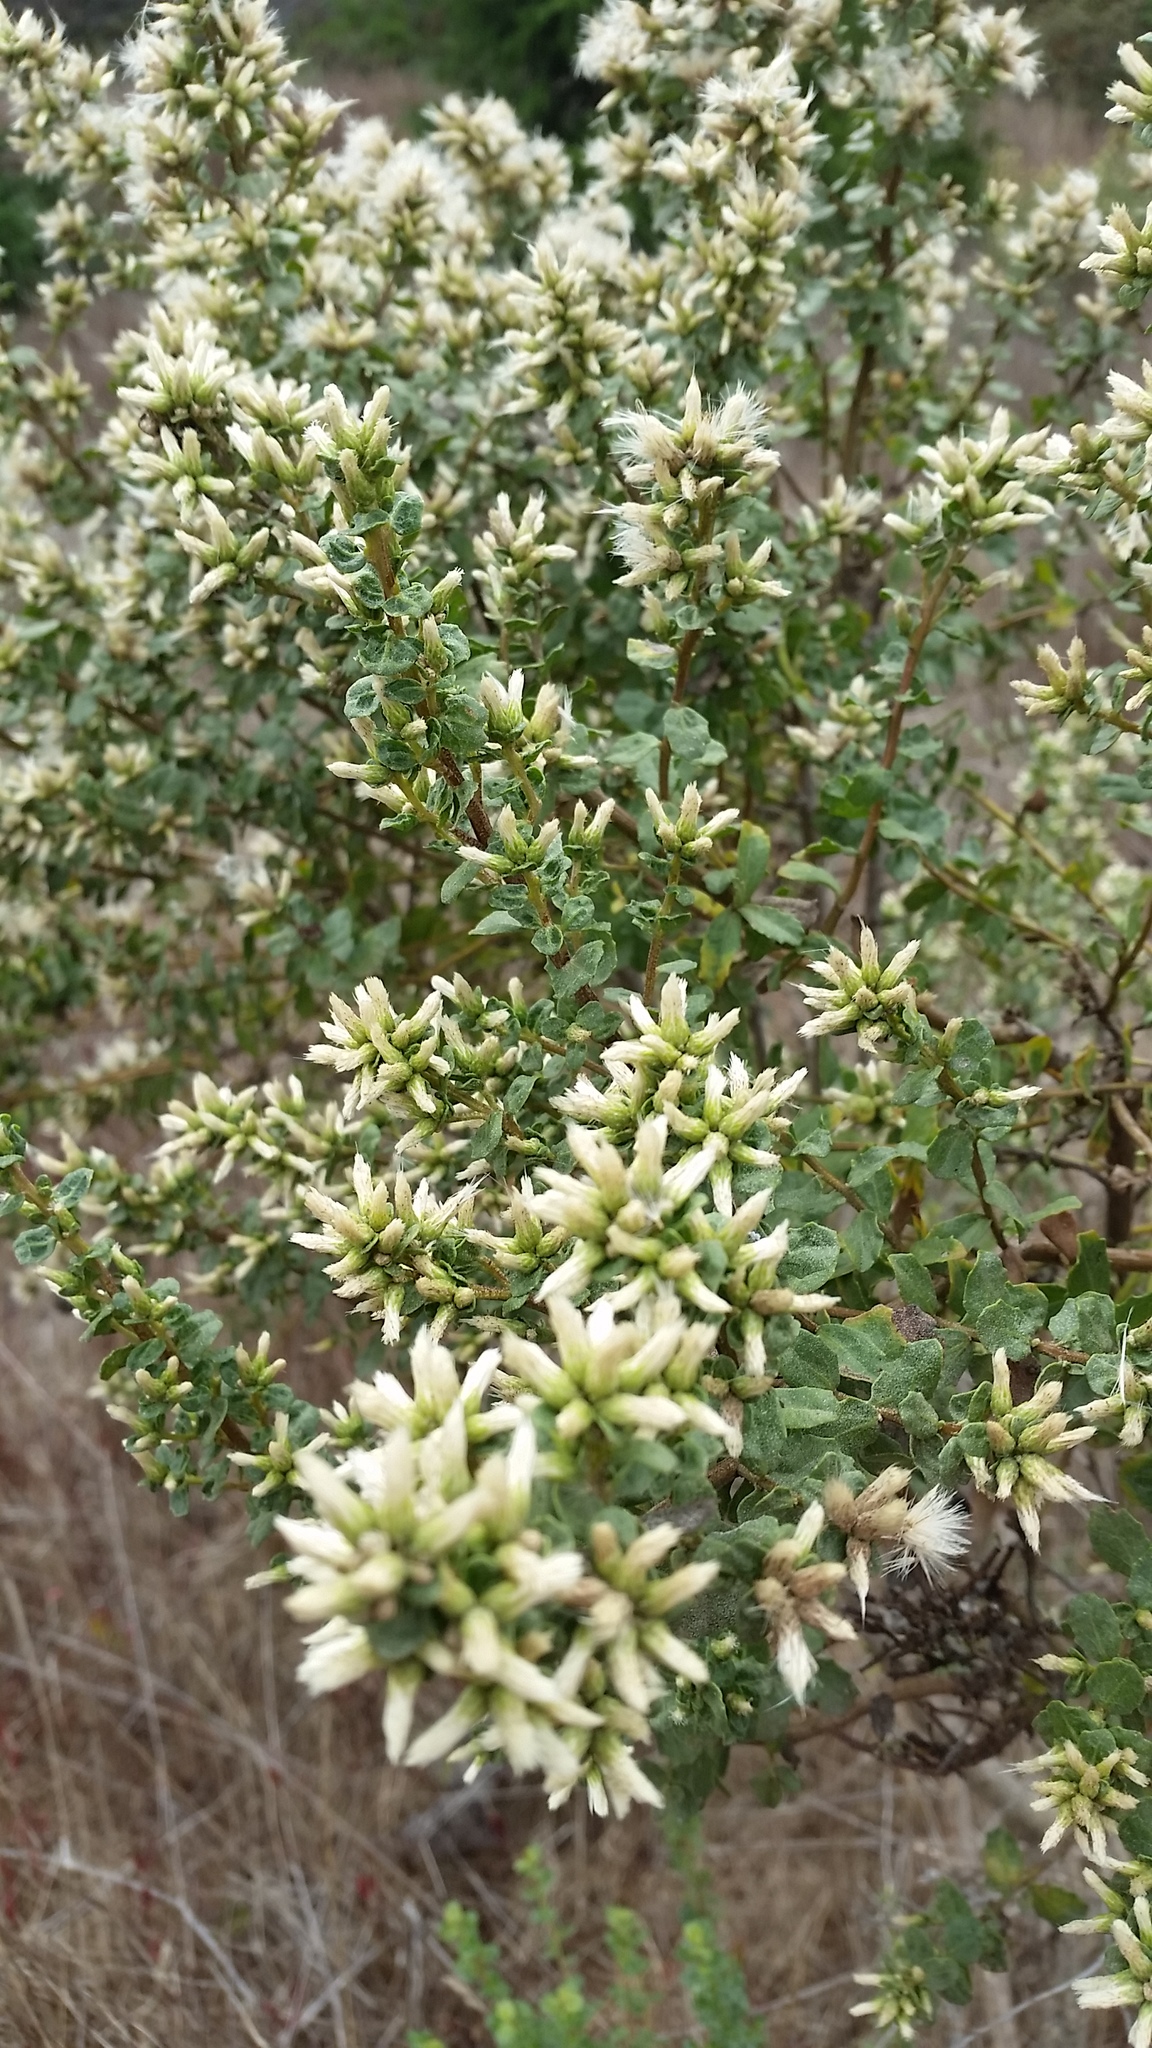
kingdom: Plantae
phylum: Tracheophyta
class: Magnoliopsida
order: Asterales
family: Asteraceae
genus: Baccharis
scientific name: Baccharis pilularis
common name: Coyotebrush
